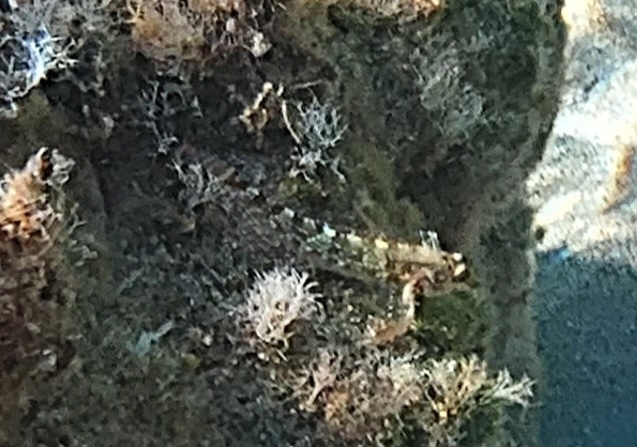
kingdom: Animalia
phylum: Chordata
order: Perciformes
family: Tripterygiidae
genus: Tripterygion
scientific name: Tripterygion tripteronotum
